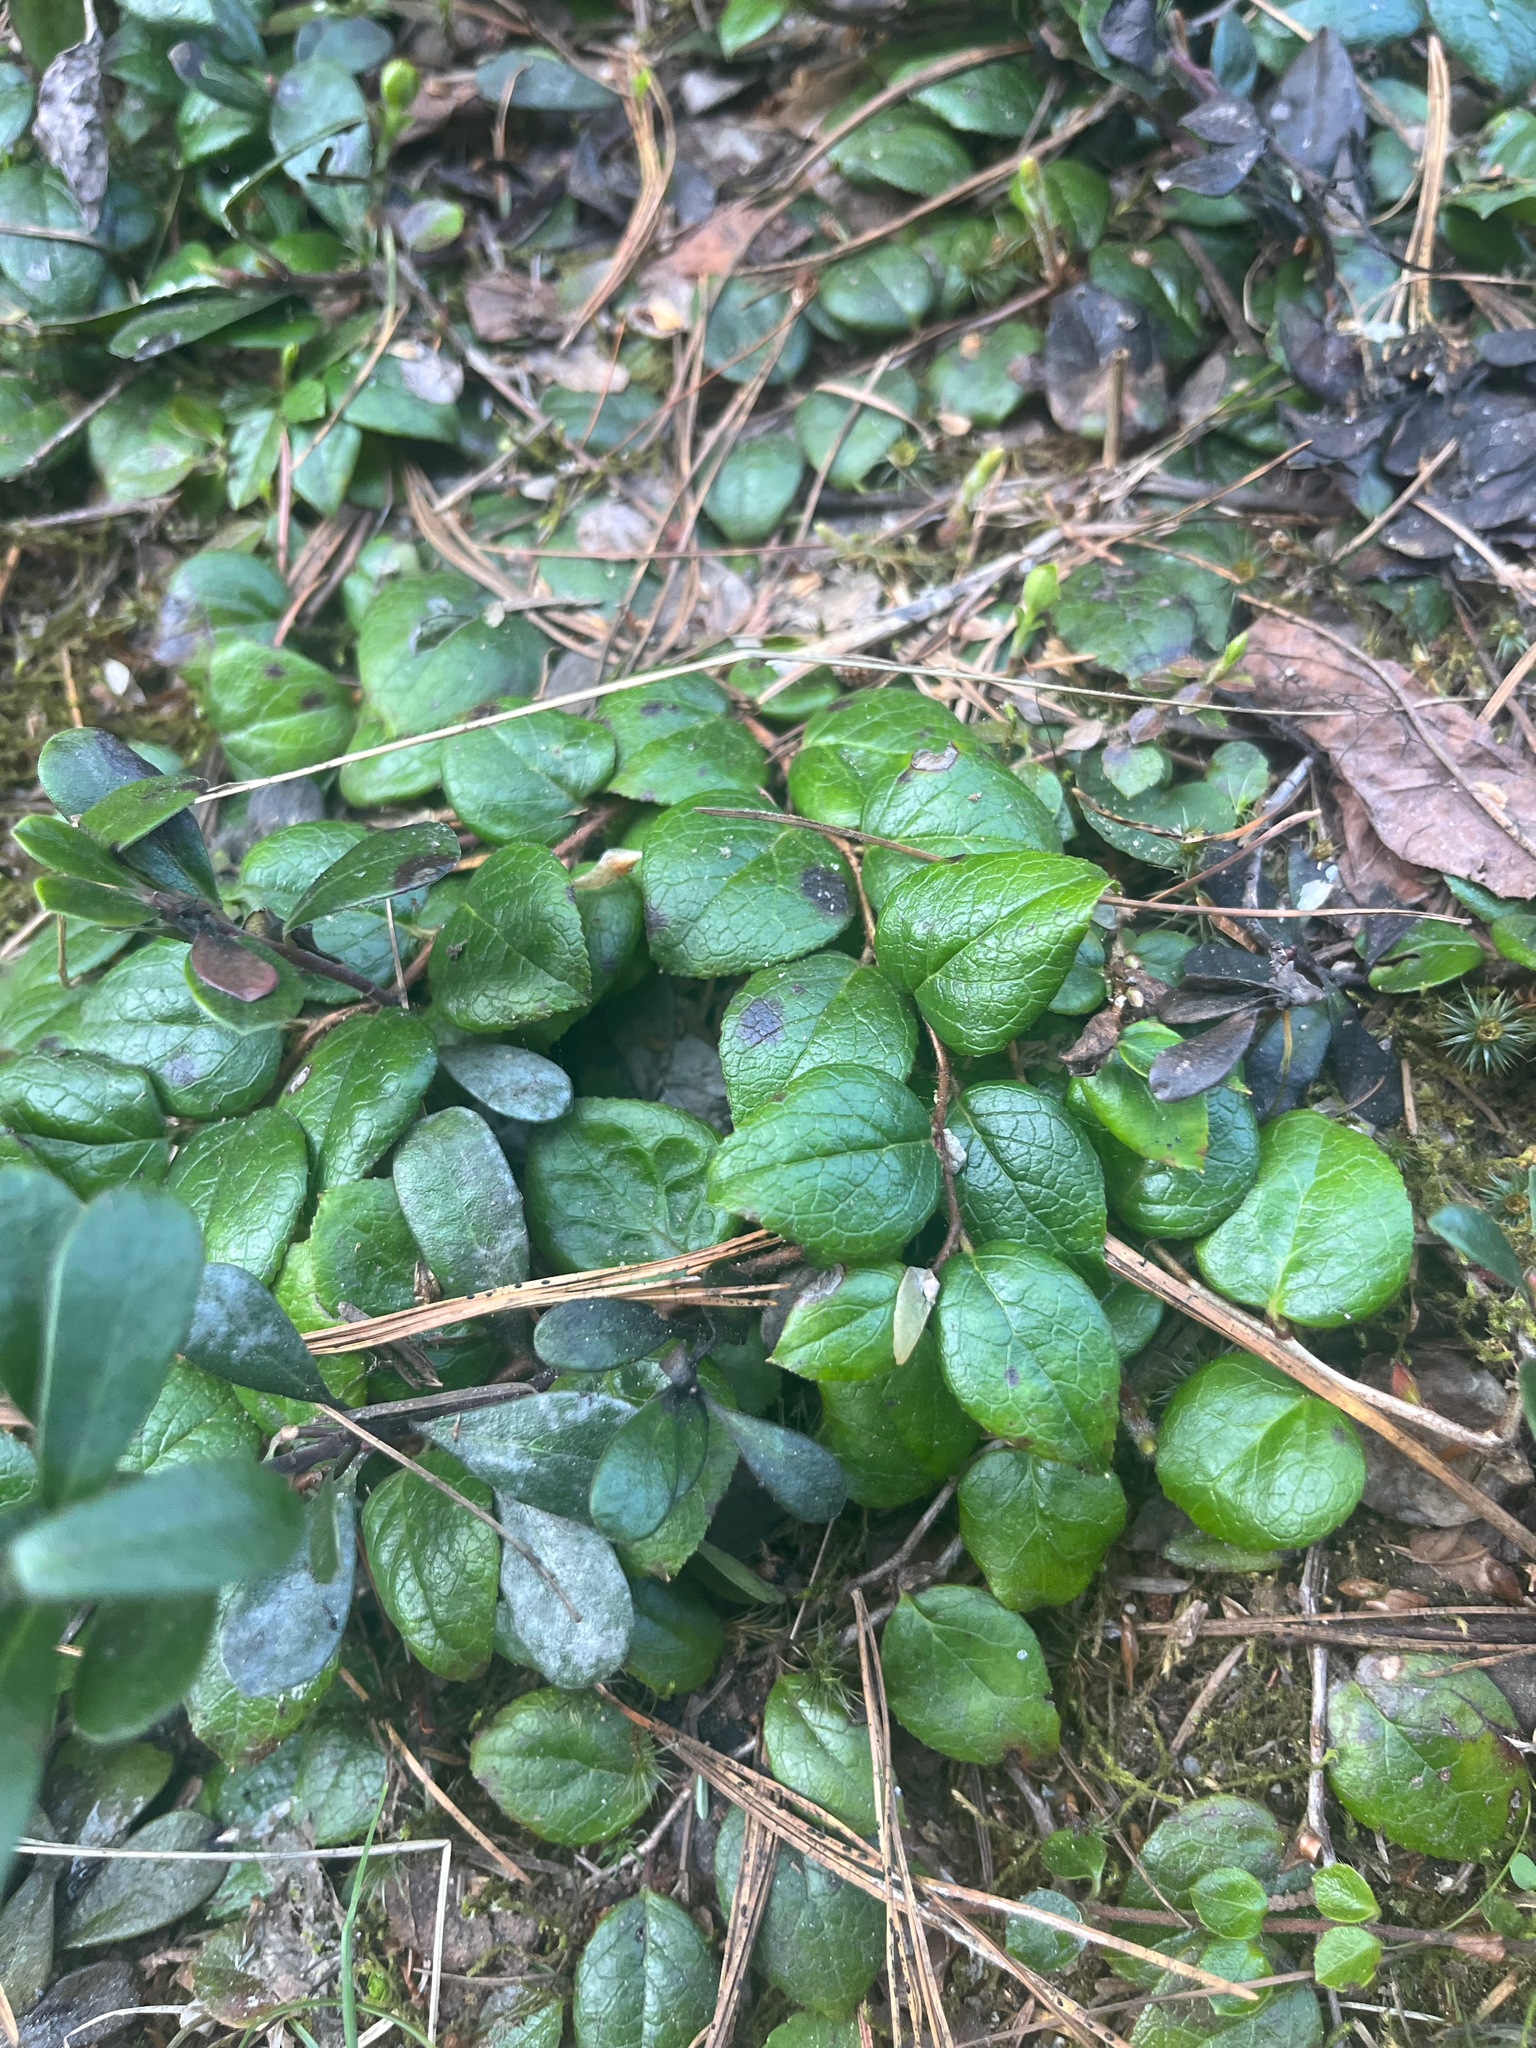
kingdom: Plantae
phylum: Tracheophyta
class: Magnoliopsida
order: Ericales
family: Ericaceae
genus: Gaultheria
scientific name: Gaultheria ovatifolia
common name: Oregon wintergreen
